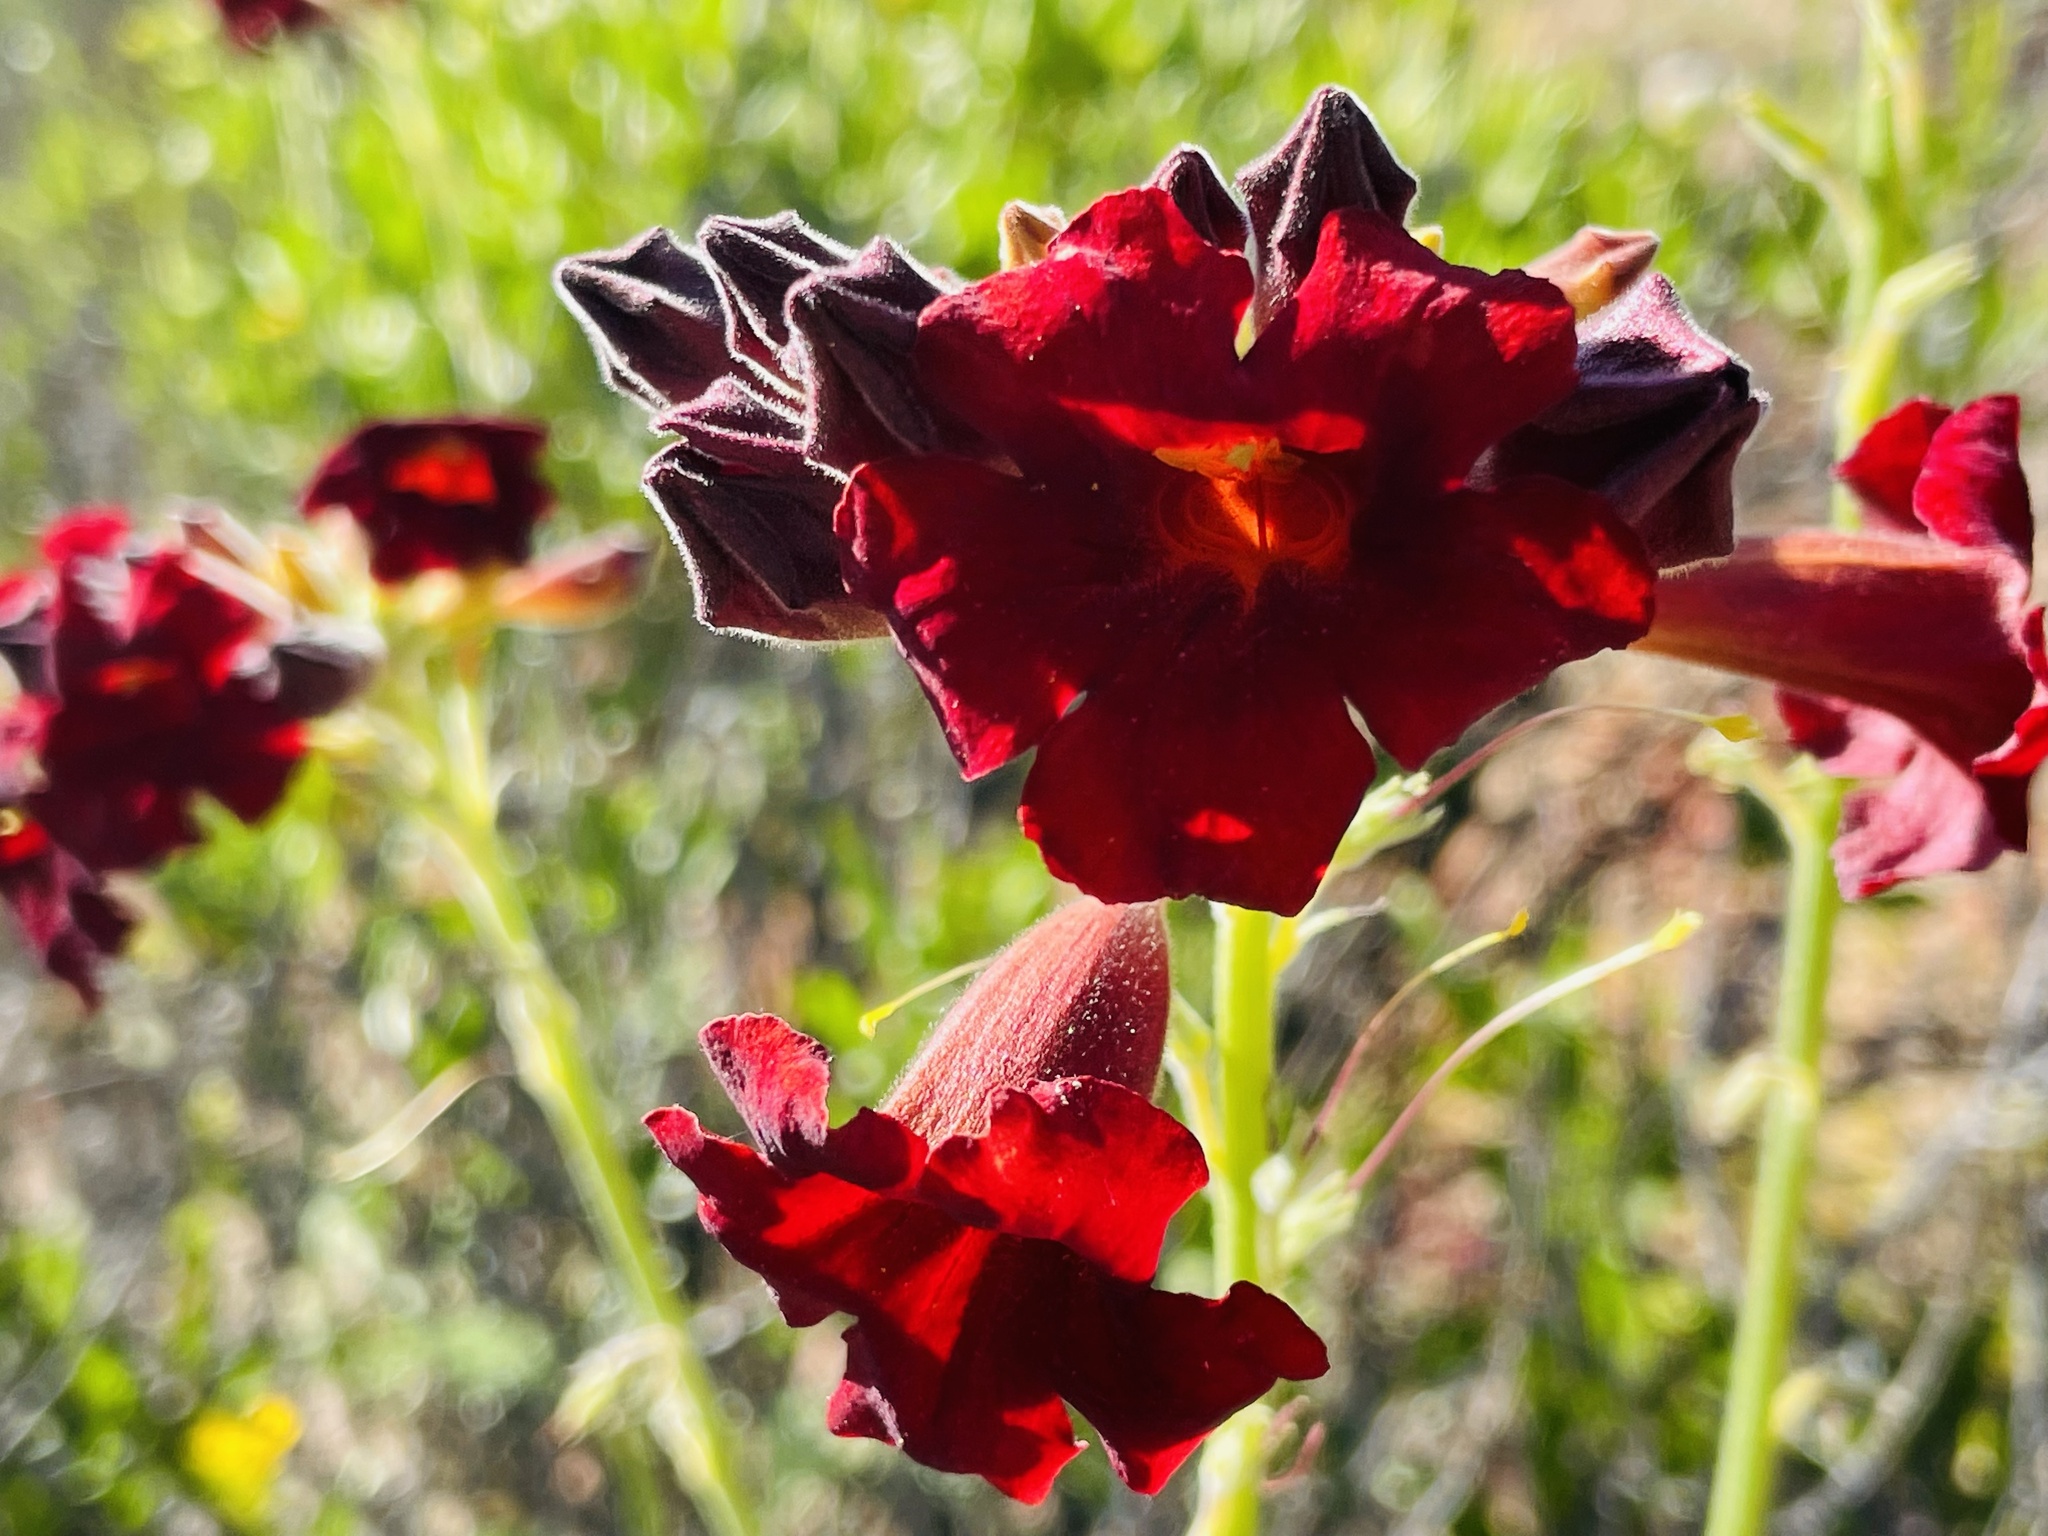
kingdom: Plantae
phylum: Tracheophyta
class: Magnoliopsida
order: Lamiales
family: Bignoniaceae
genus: Argylia
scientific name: Argylia radiata
